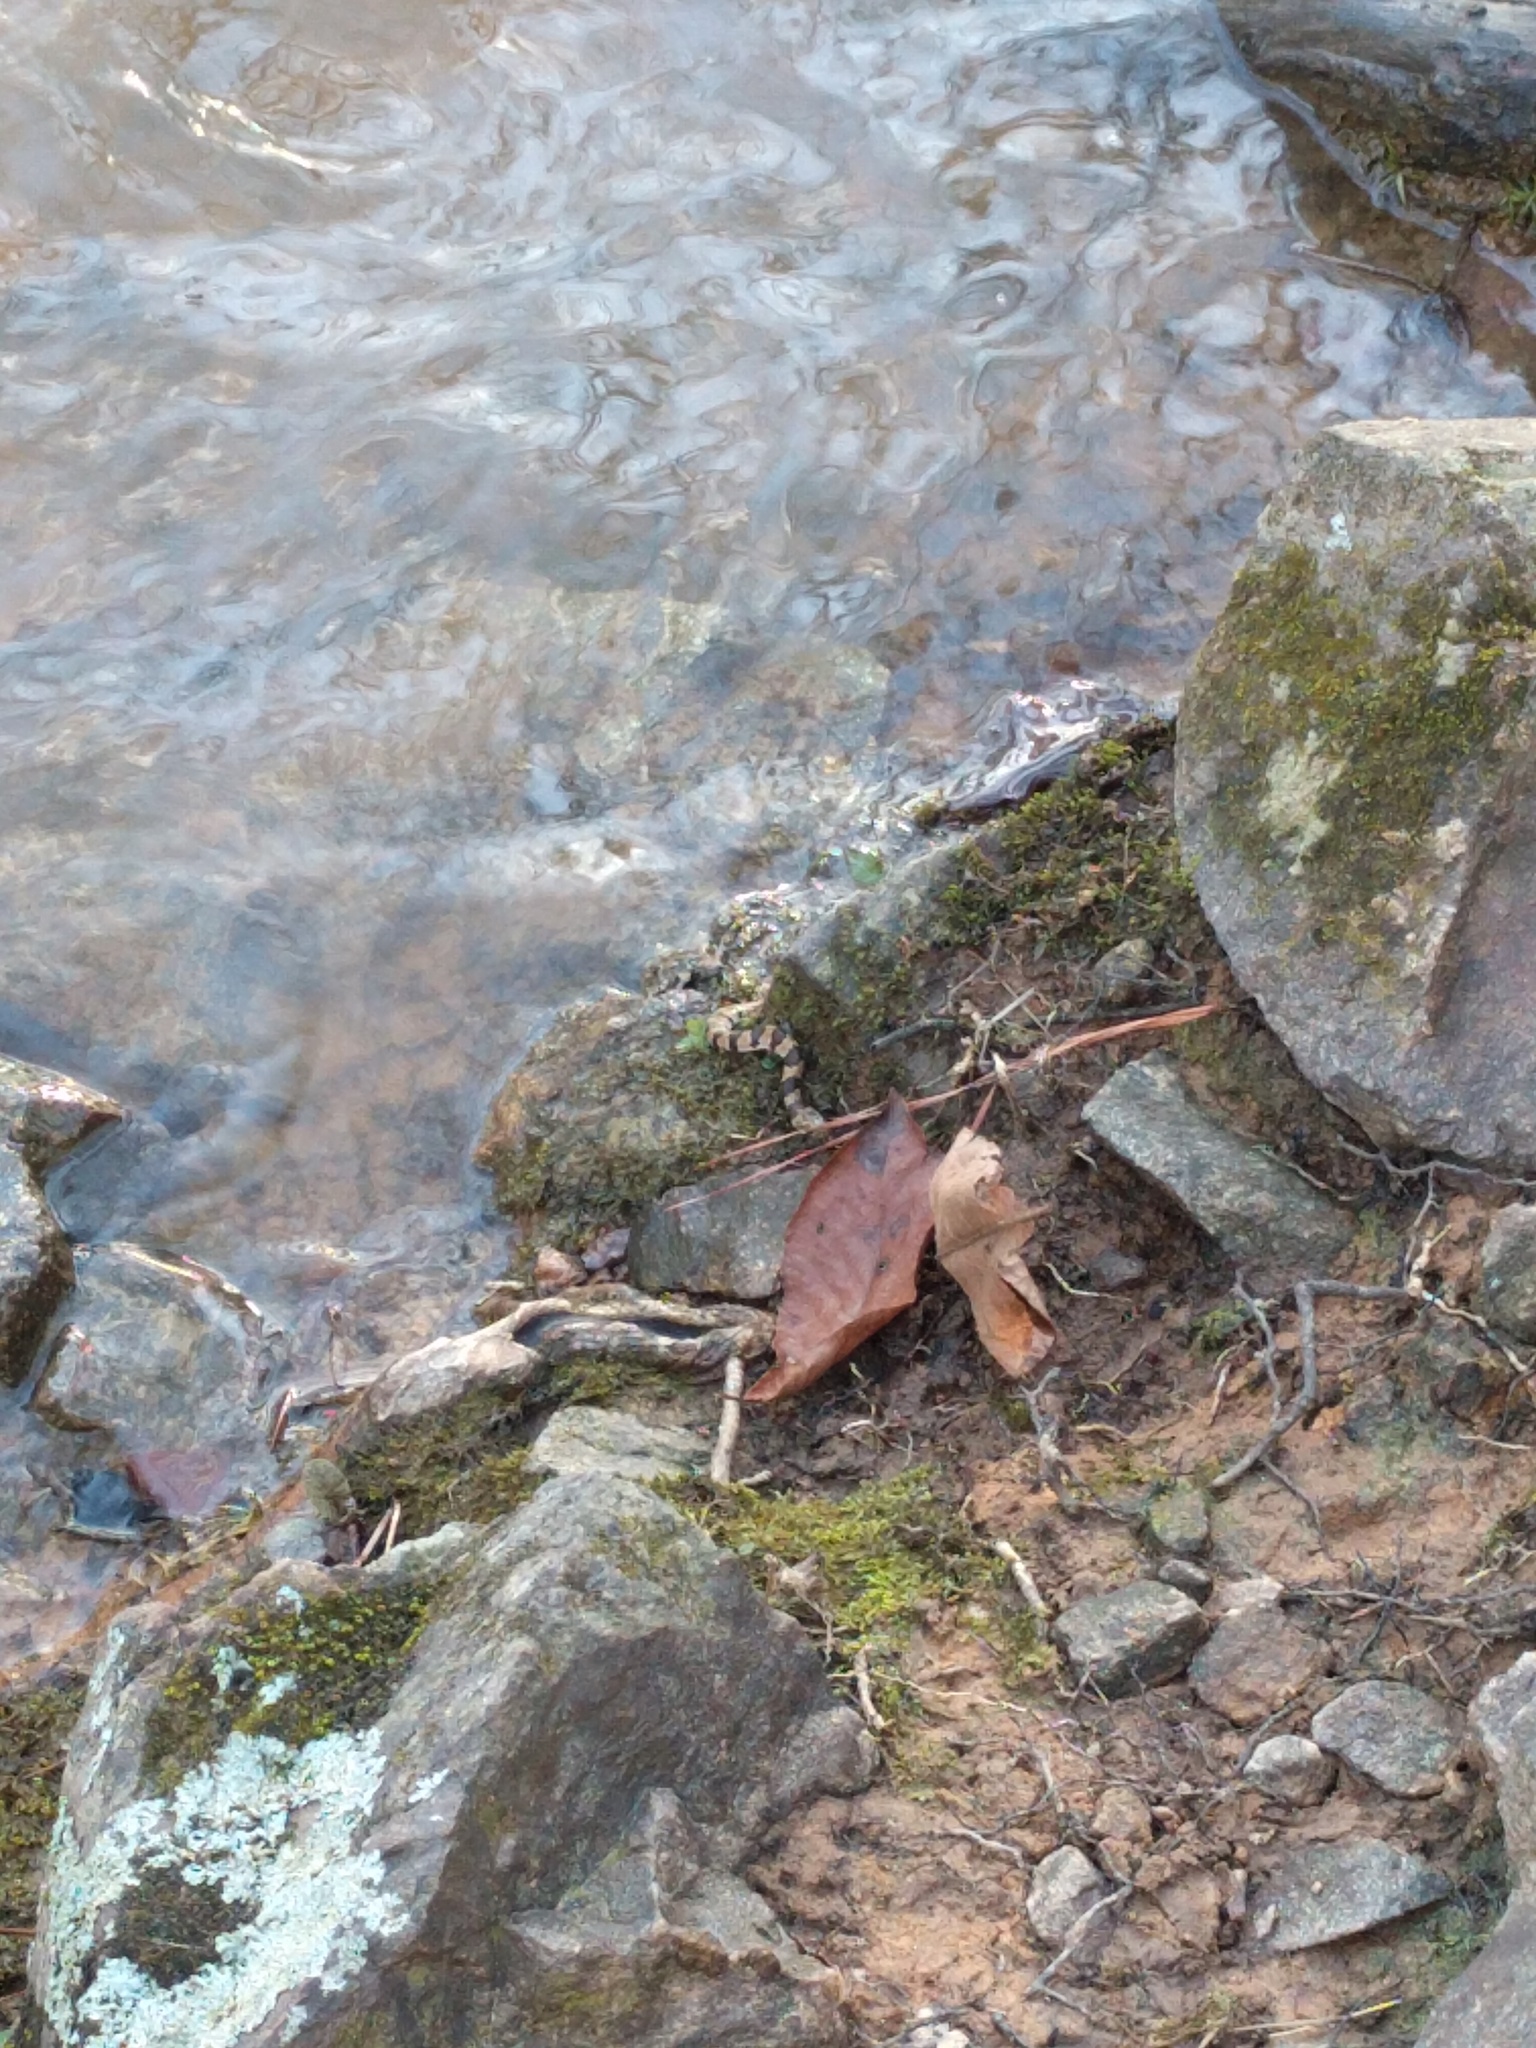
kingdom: Animalia
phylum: Chordata
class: Squamata
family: Colubridae
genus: Nerodia
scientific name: Nerodia sipedon
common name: Northern water snake
